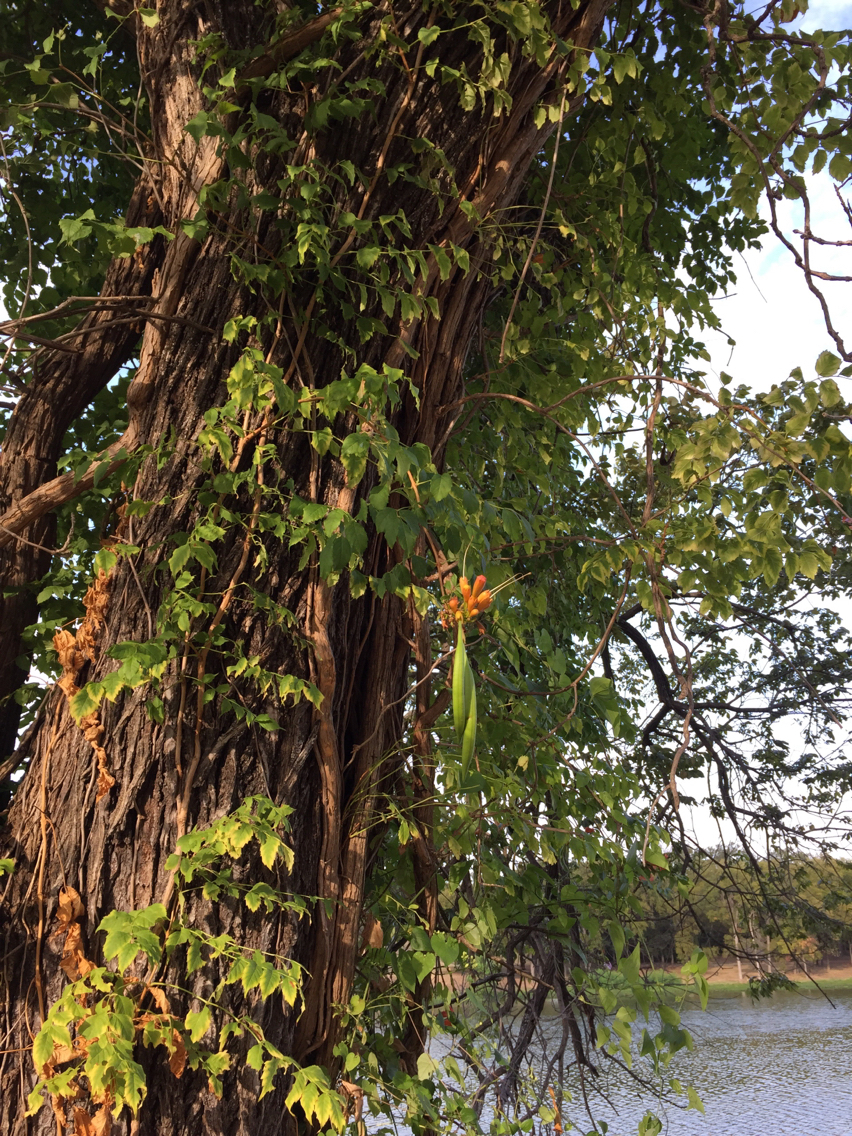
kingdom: Plantae
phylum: Tracheophyta
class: Magnoliopsida
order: Lamiales
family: Bignoniaceae
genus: Campsis
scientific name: Campsis radicans
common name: Trumpet-creeper
